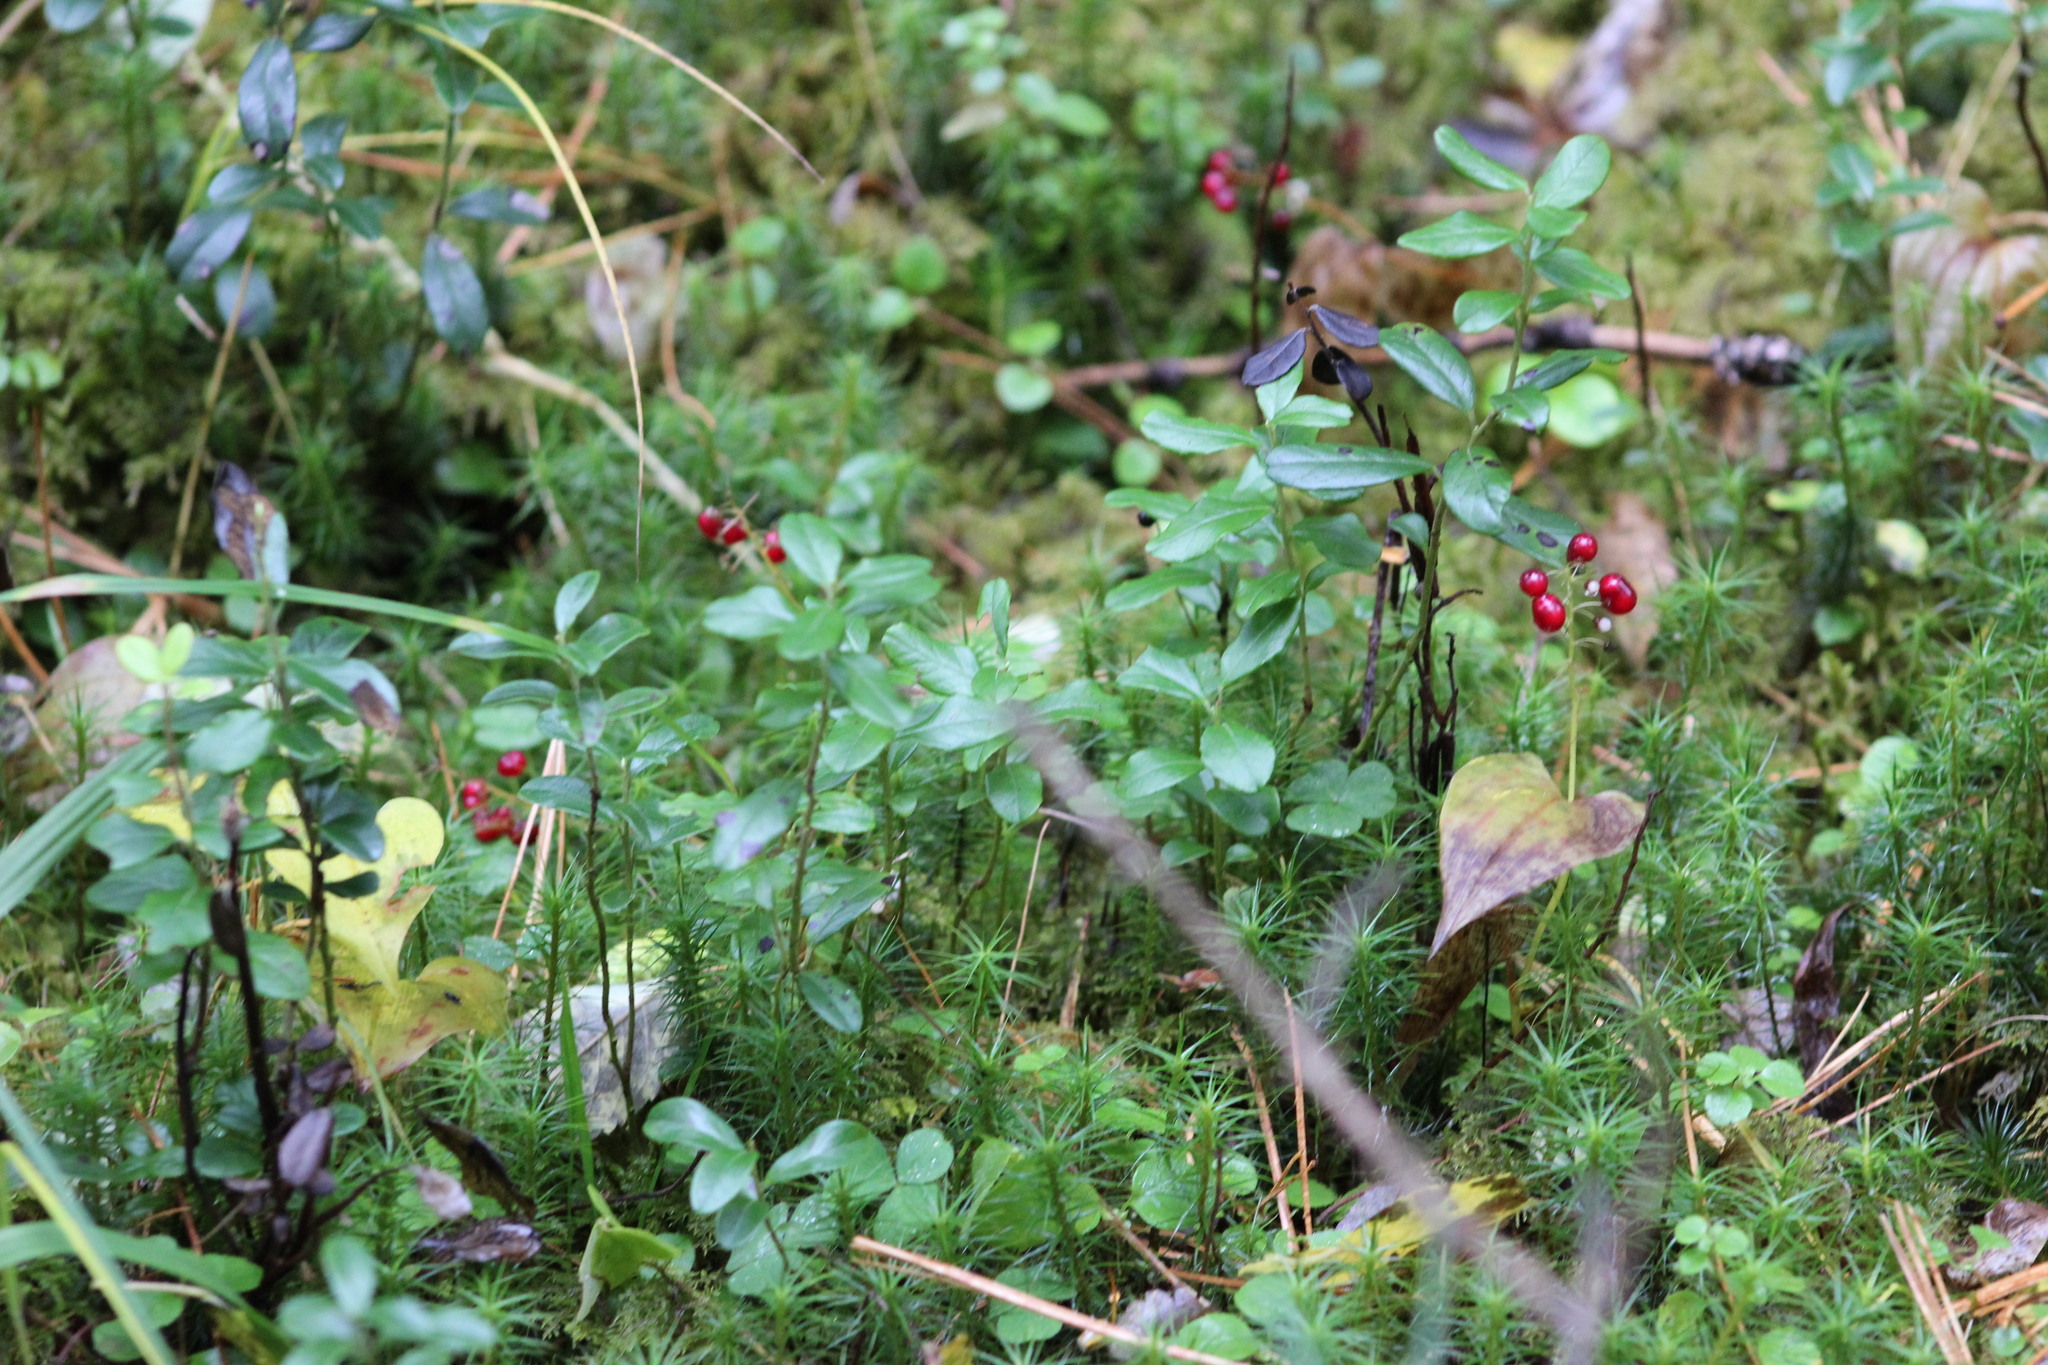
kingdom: Plantae
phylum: Tracheophyta
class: Magnoliopsida
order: Ericales
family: Ericaceae
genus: Vaccinium
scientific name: Vaccinium vitis-idaea
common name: Cowberry
